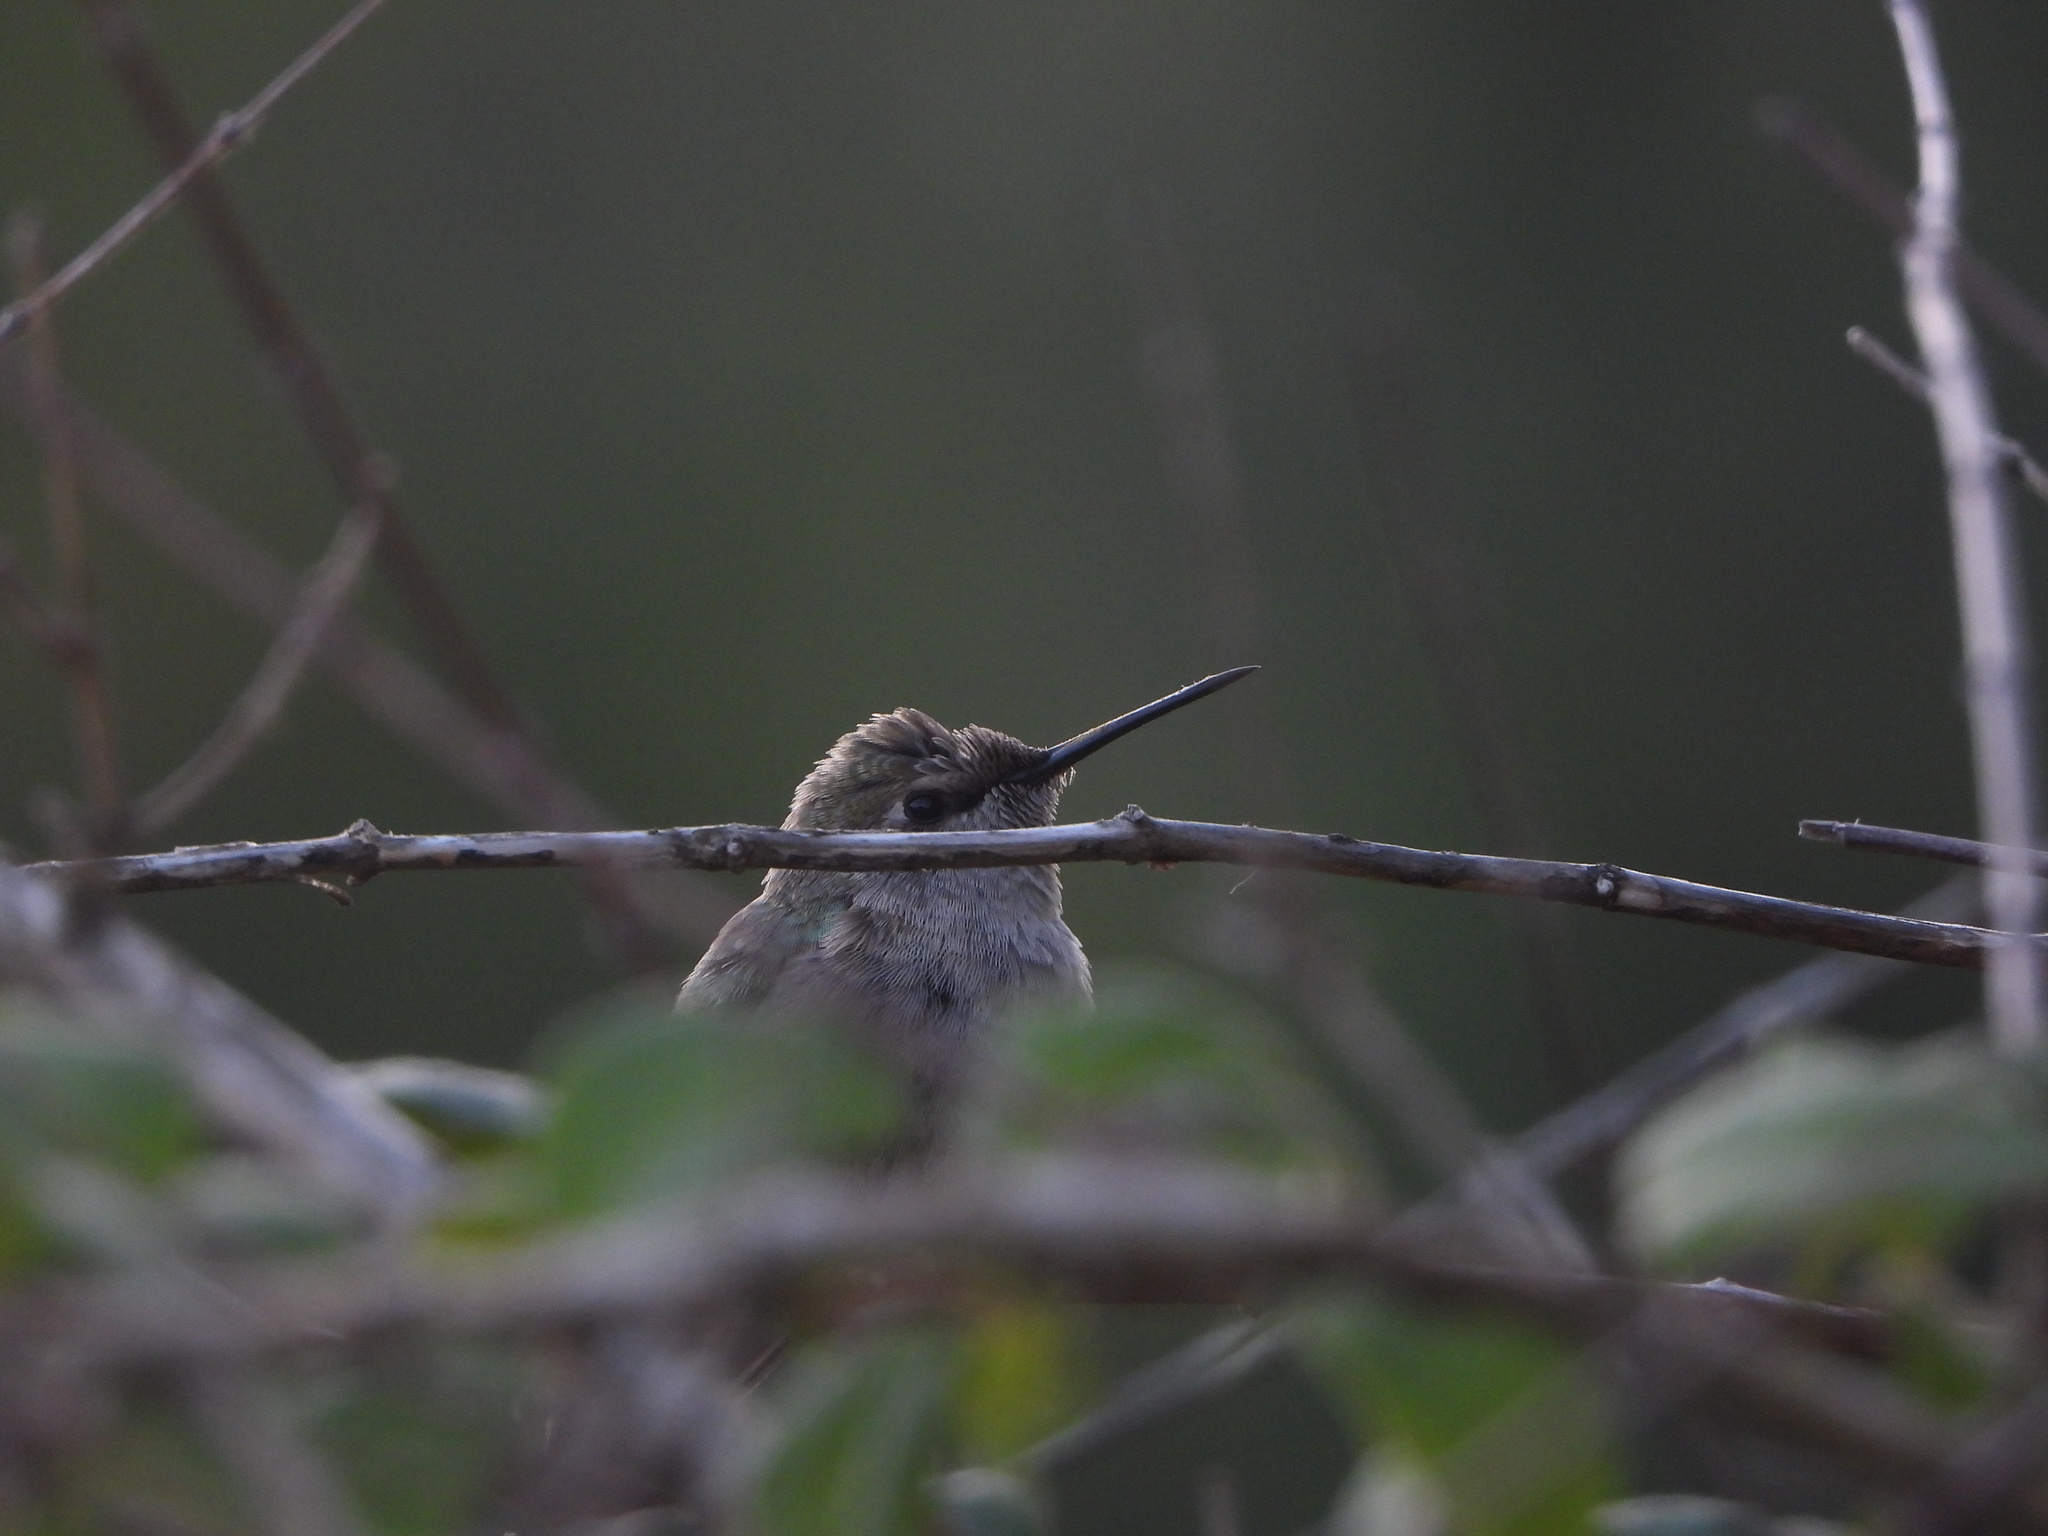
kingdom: Animalia
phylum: Chordata
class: Aves
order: Apodiformes
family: Trochilidae
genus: Calypte
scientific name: Calypte anna
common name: Anna's hummingbird
